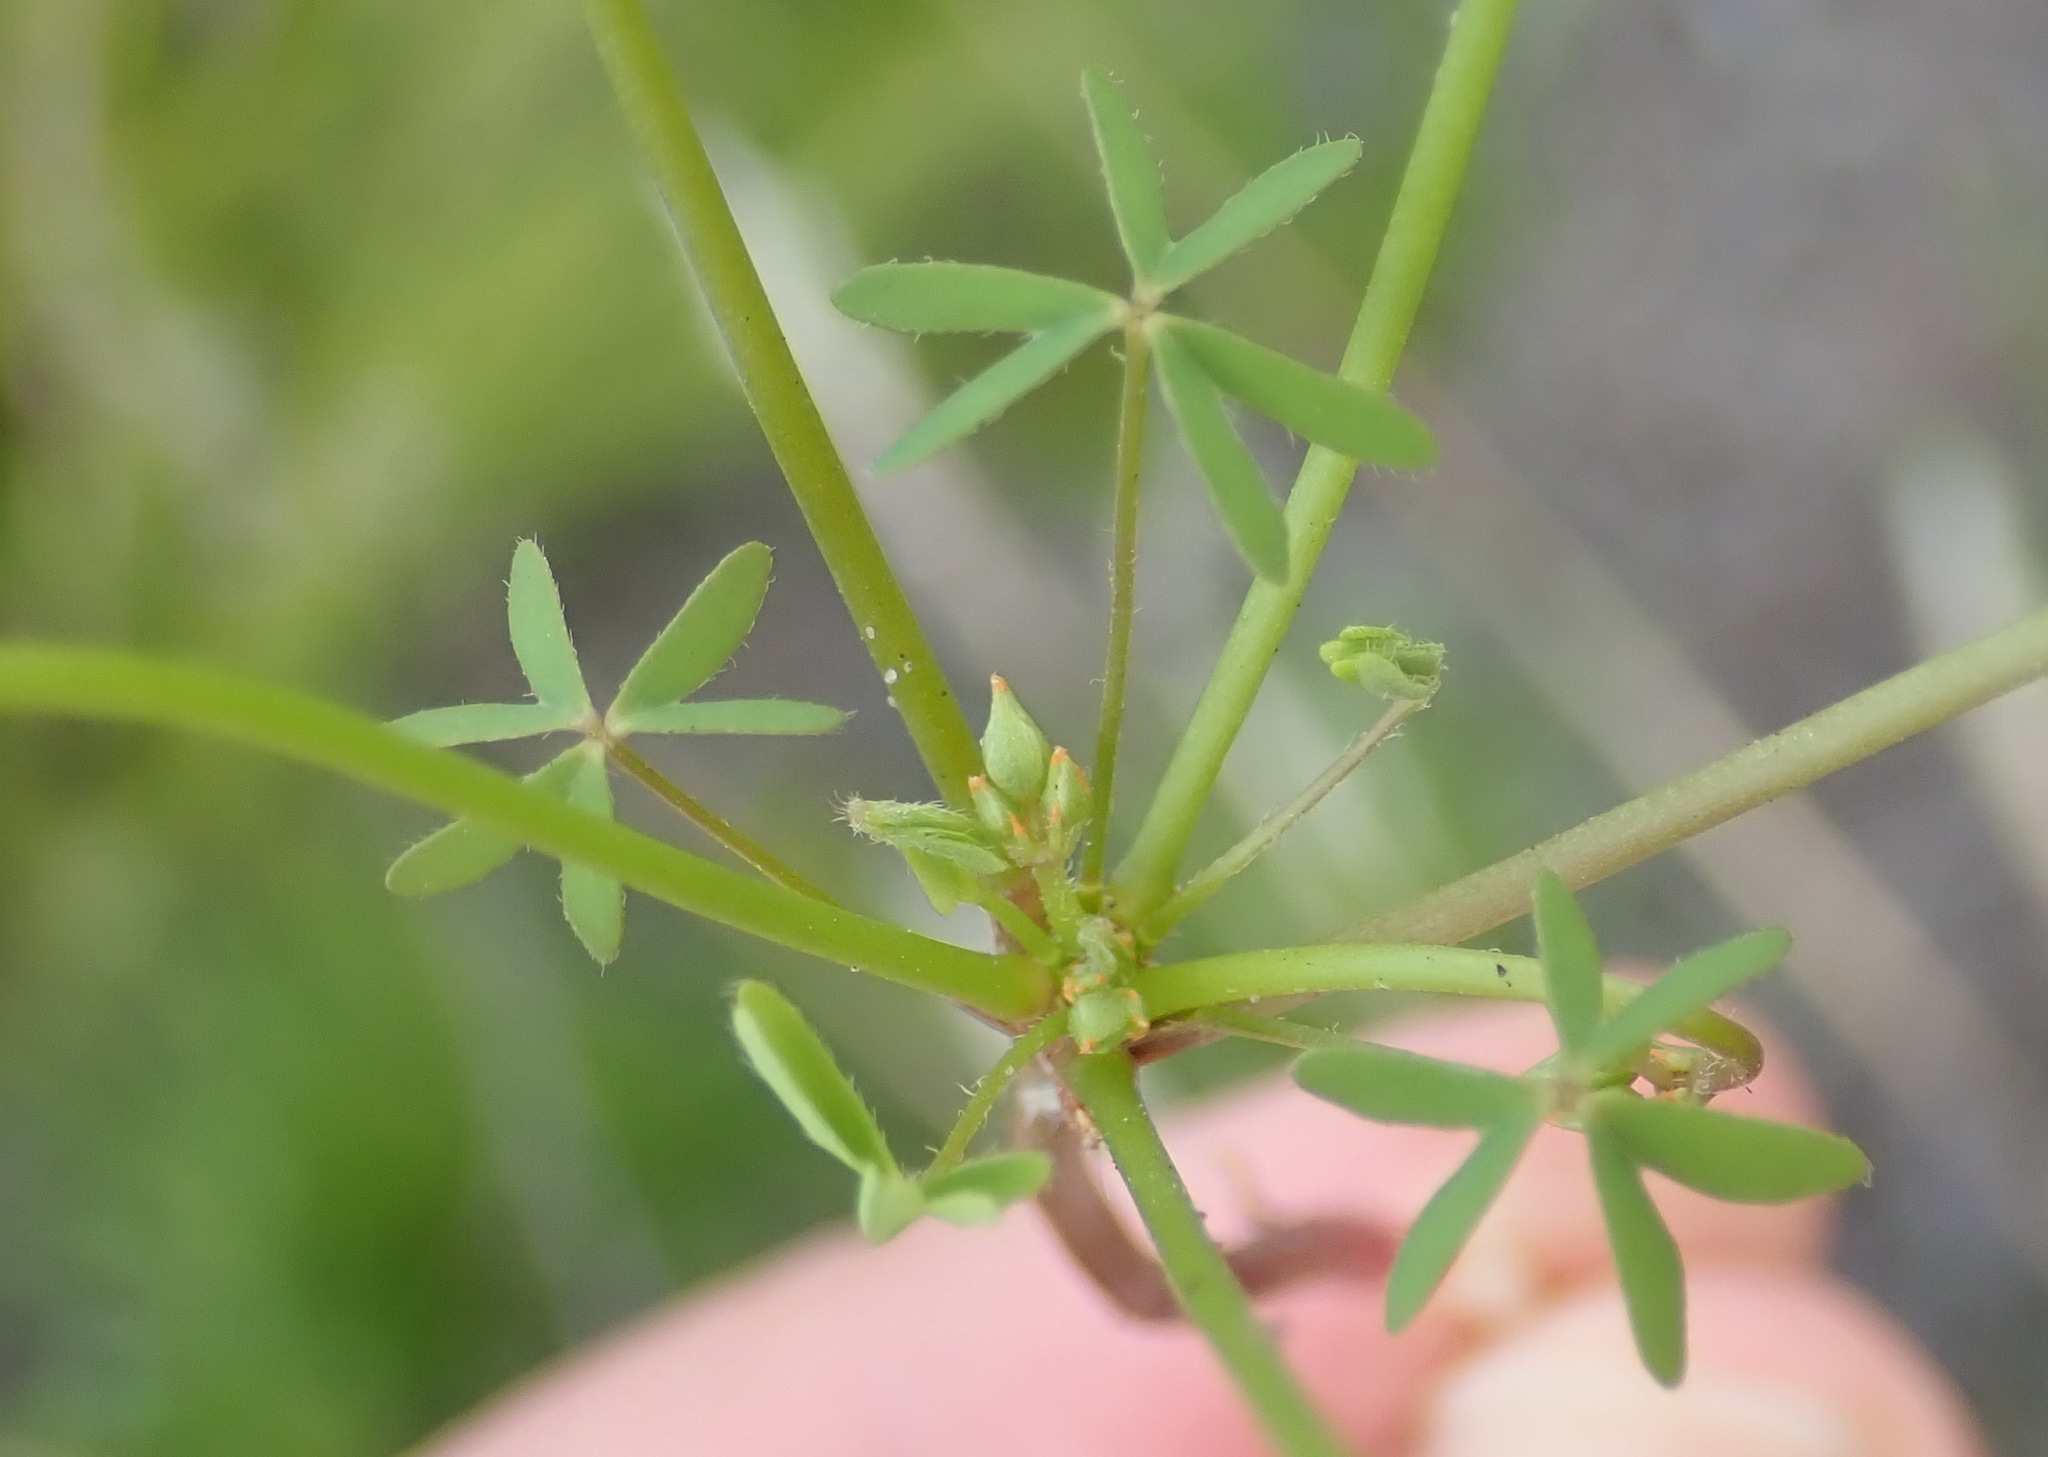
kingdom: Plantae
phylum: Tracheophyta
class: Magnoliopsida
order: Oxalidales
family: Oxalidaceae
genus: Oxalis
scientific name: Oxalis stellata
